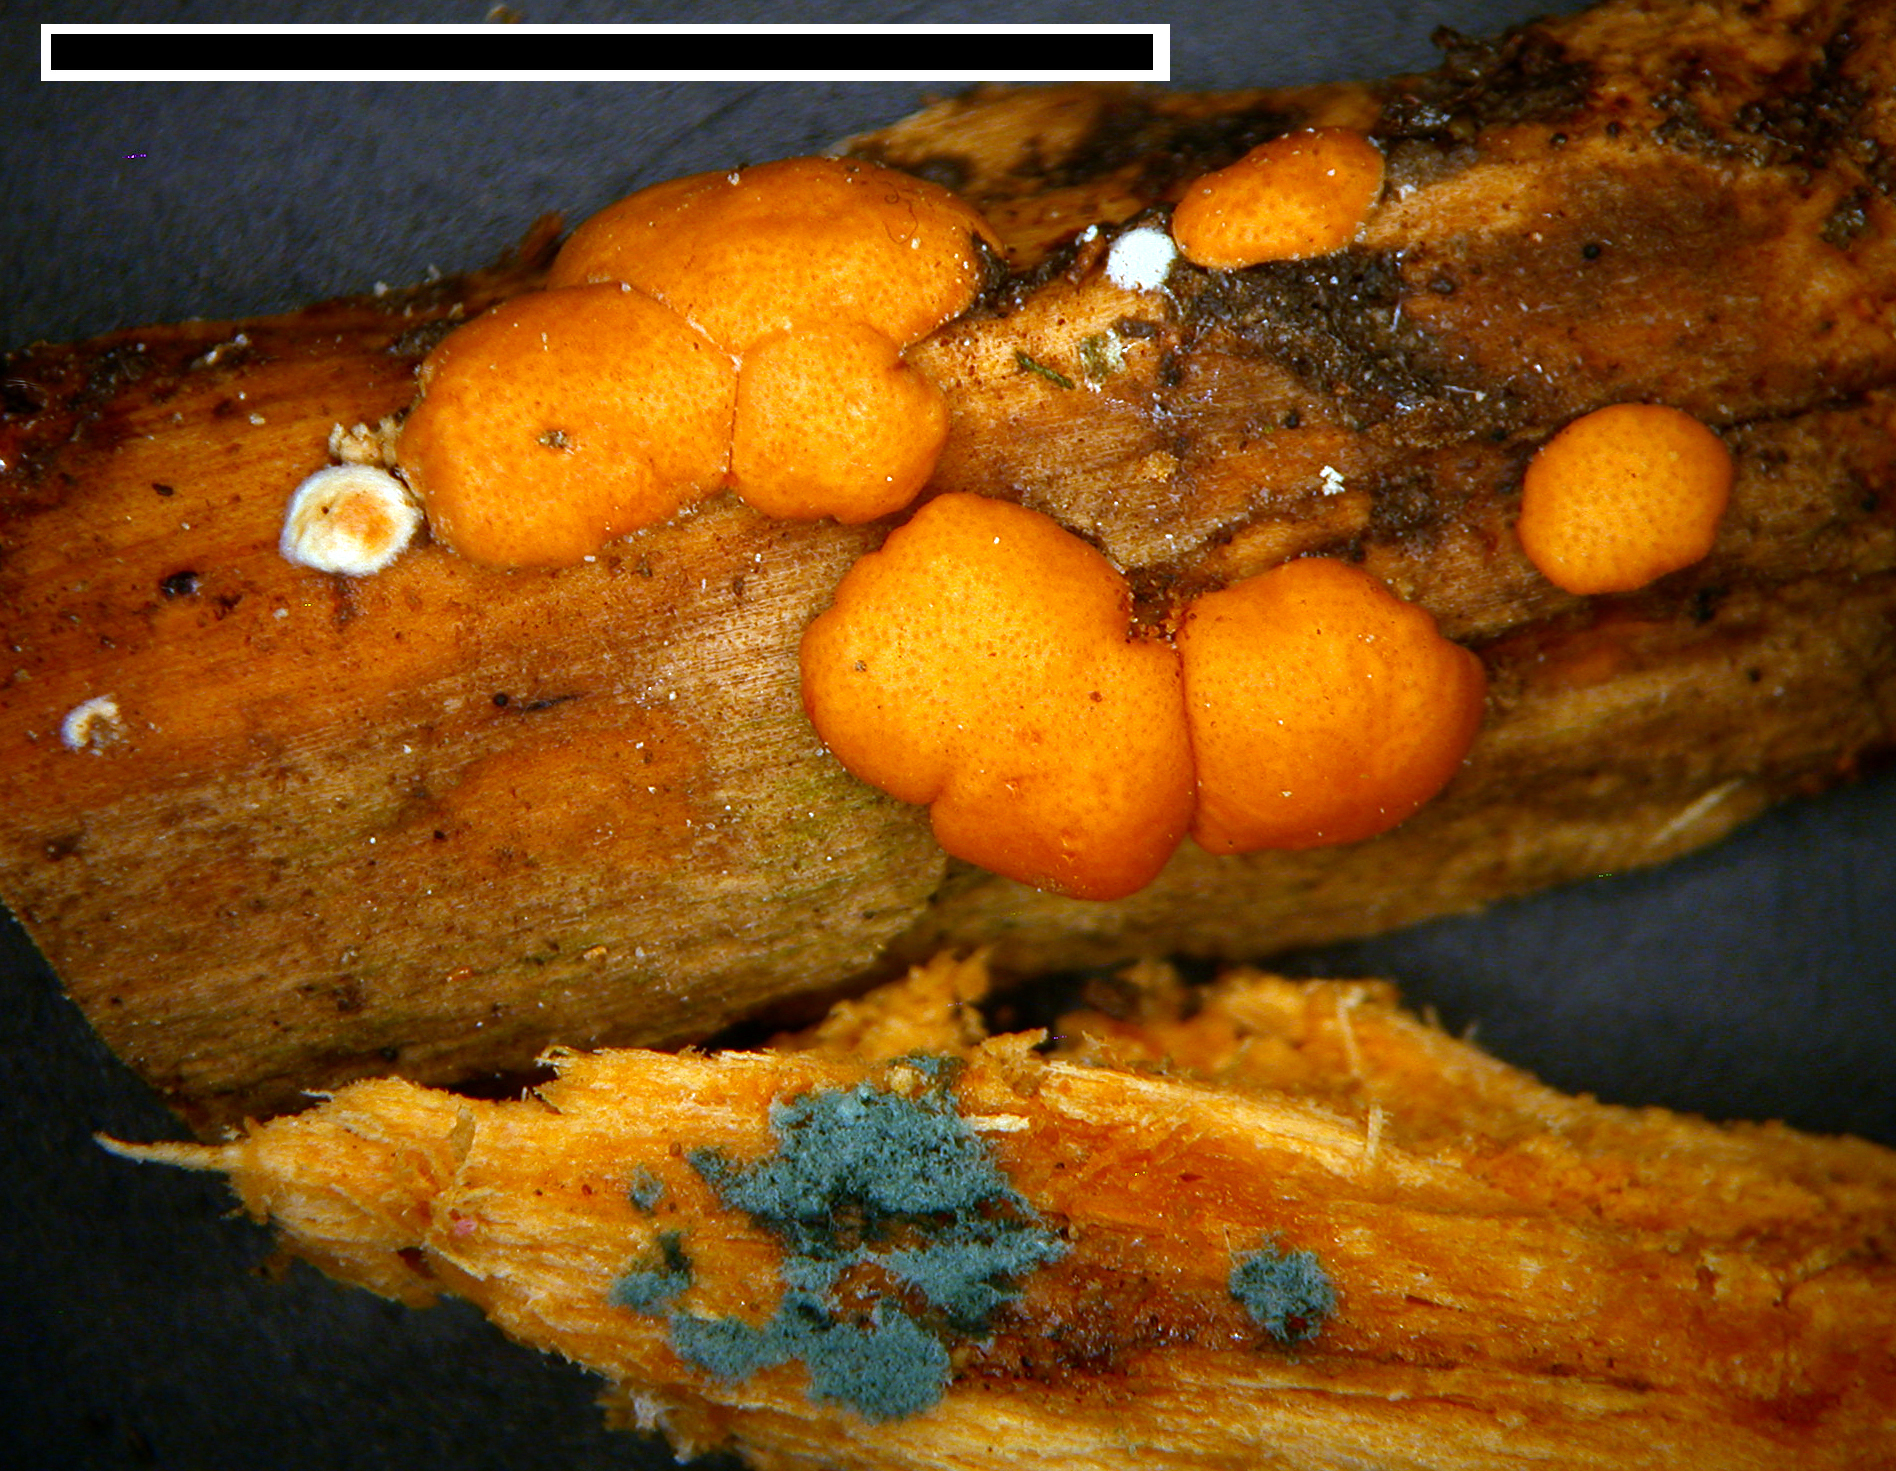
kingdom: Fungi
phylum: Ascomycota
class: Sordariomycetes
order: Hypocreales
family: Hypocreaceae
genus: Trichoderma
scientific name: Trichoderma viride
